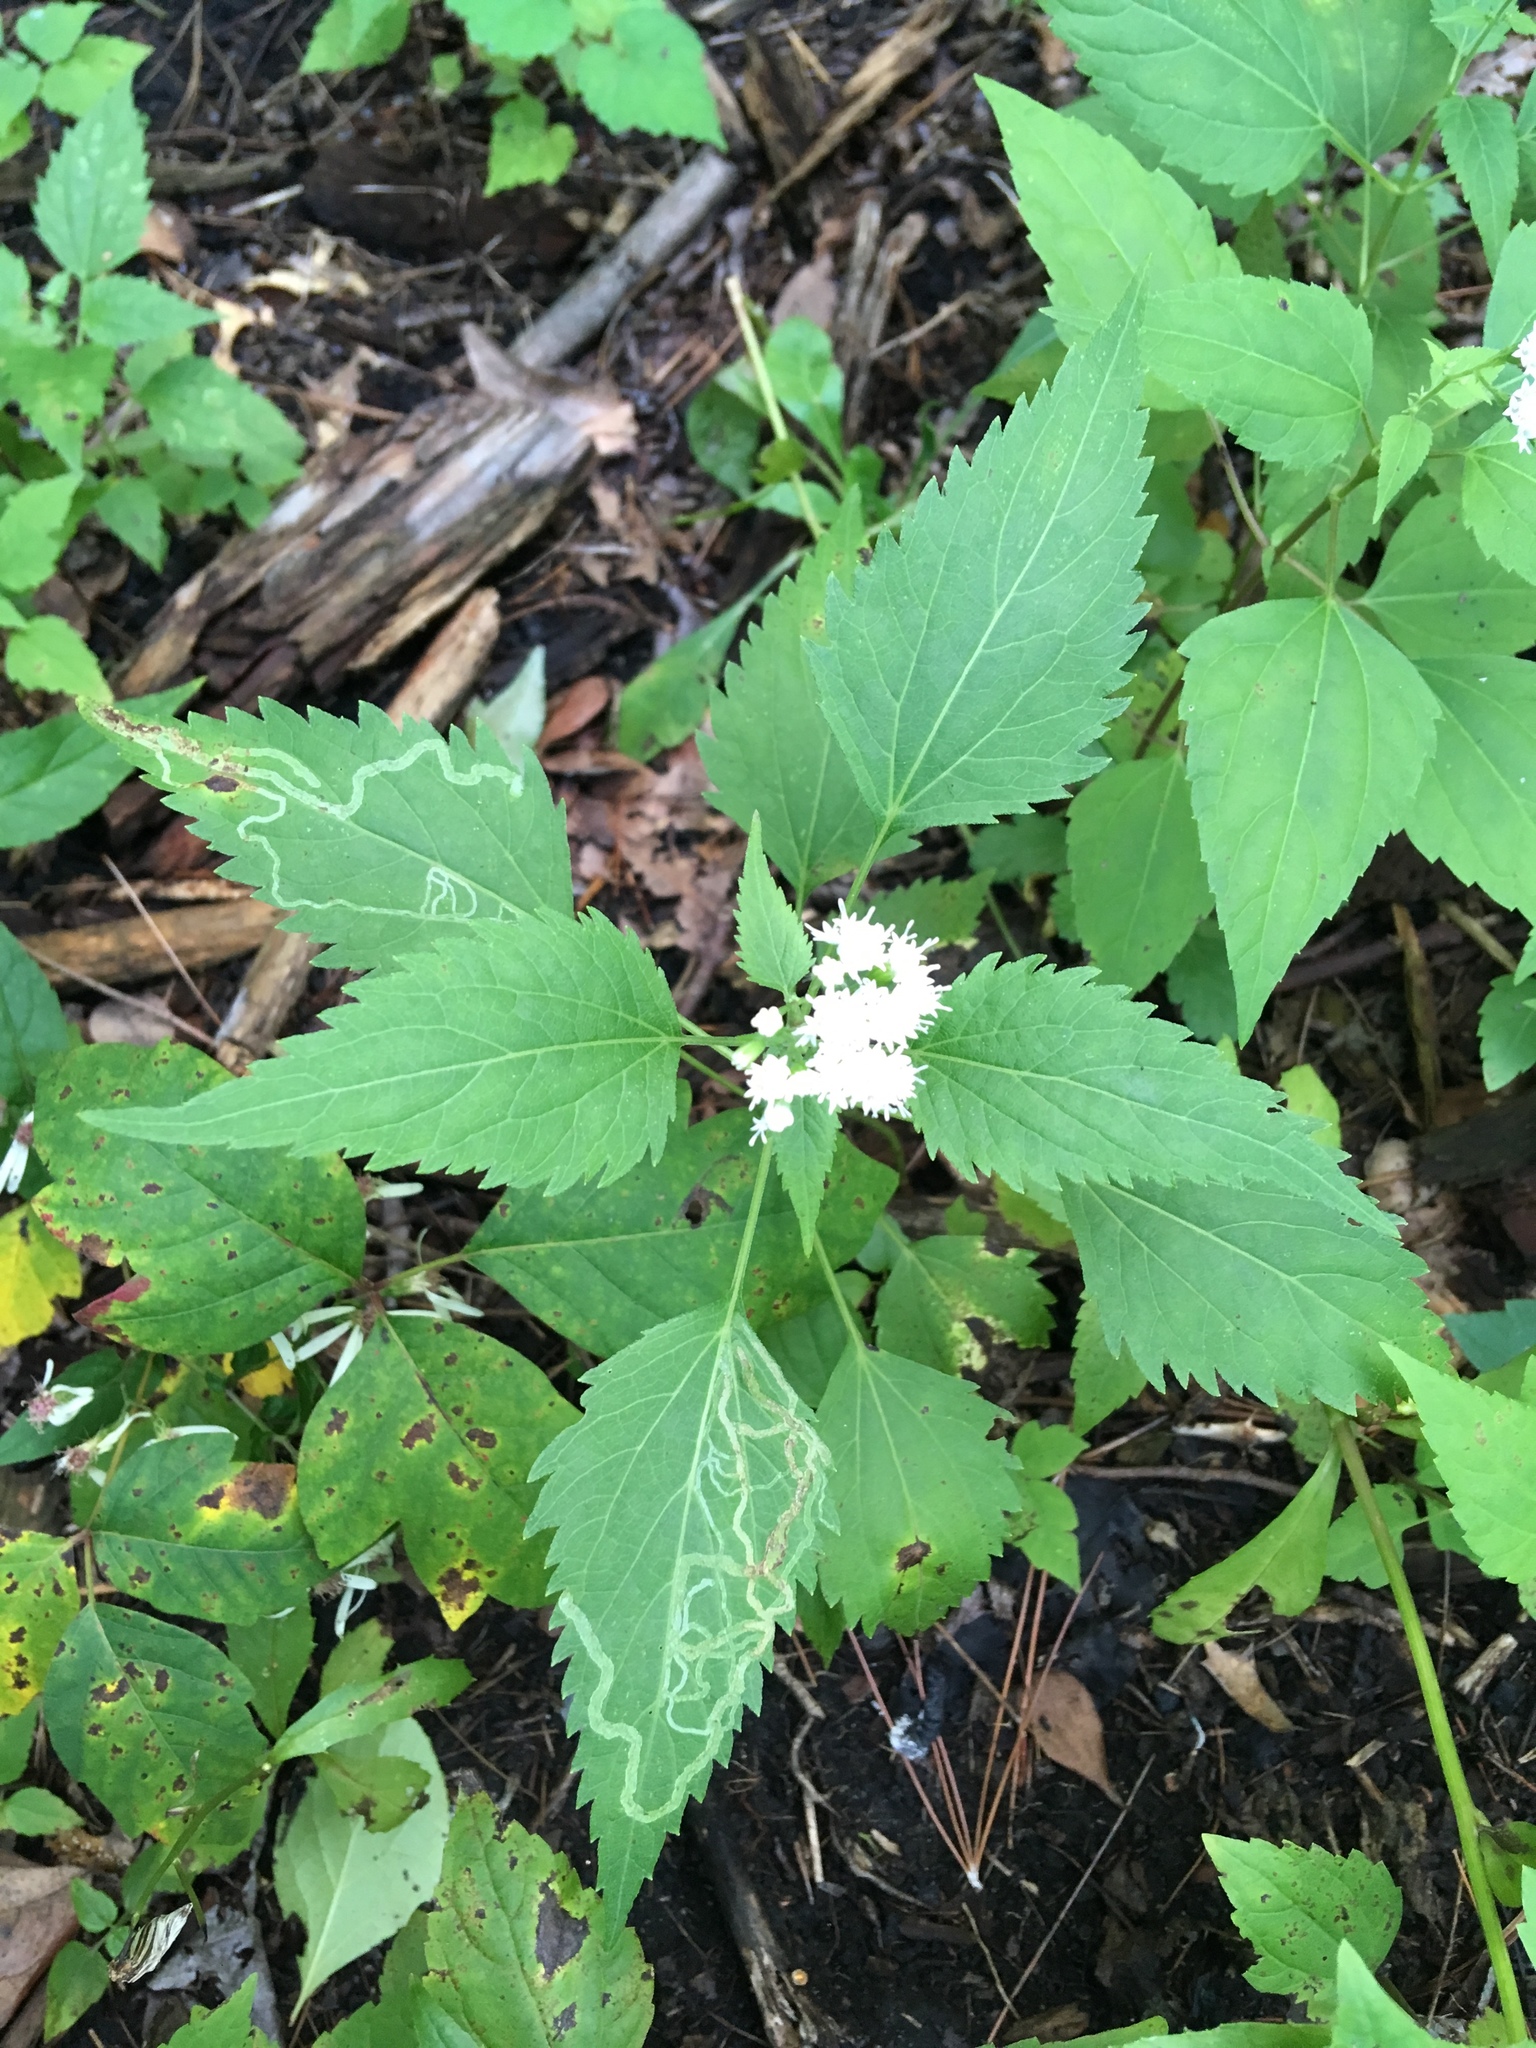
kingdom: Plantae
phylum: Tracheophyta
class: Magnoliopsida
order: Asterales
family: Asteraceae
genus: Ageratina
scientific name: Ageratina altissima
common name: White snakeroot
